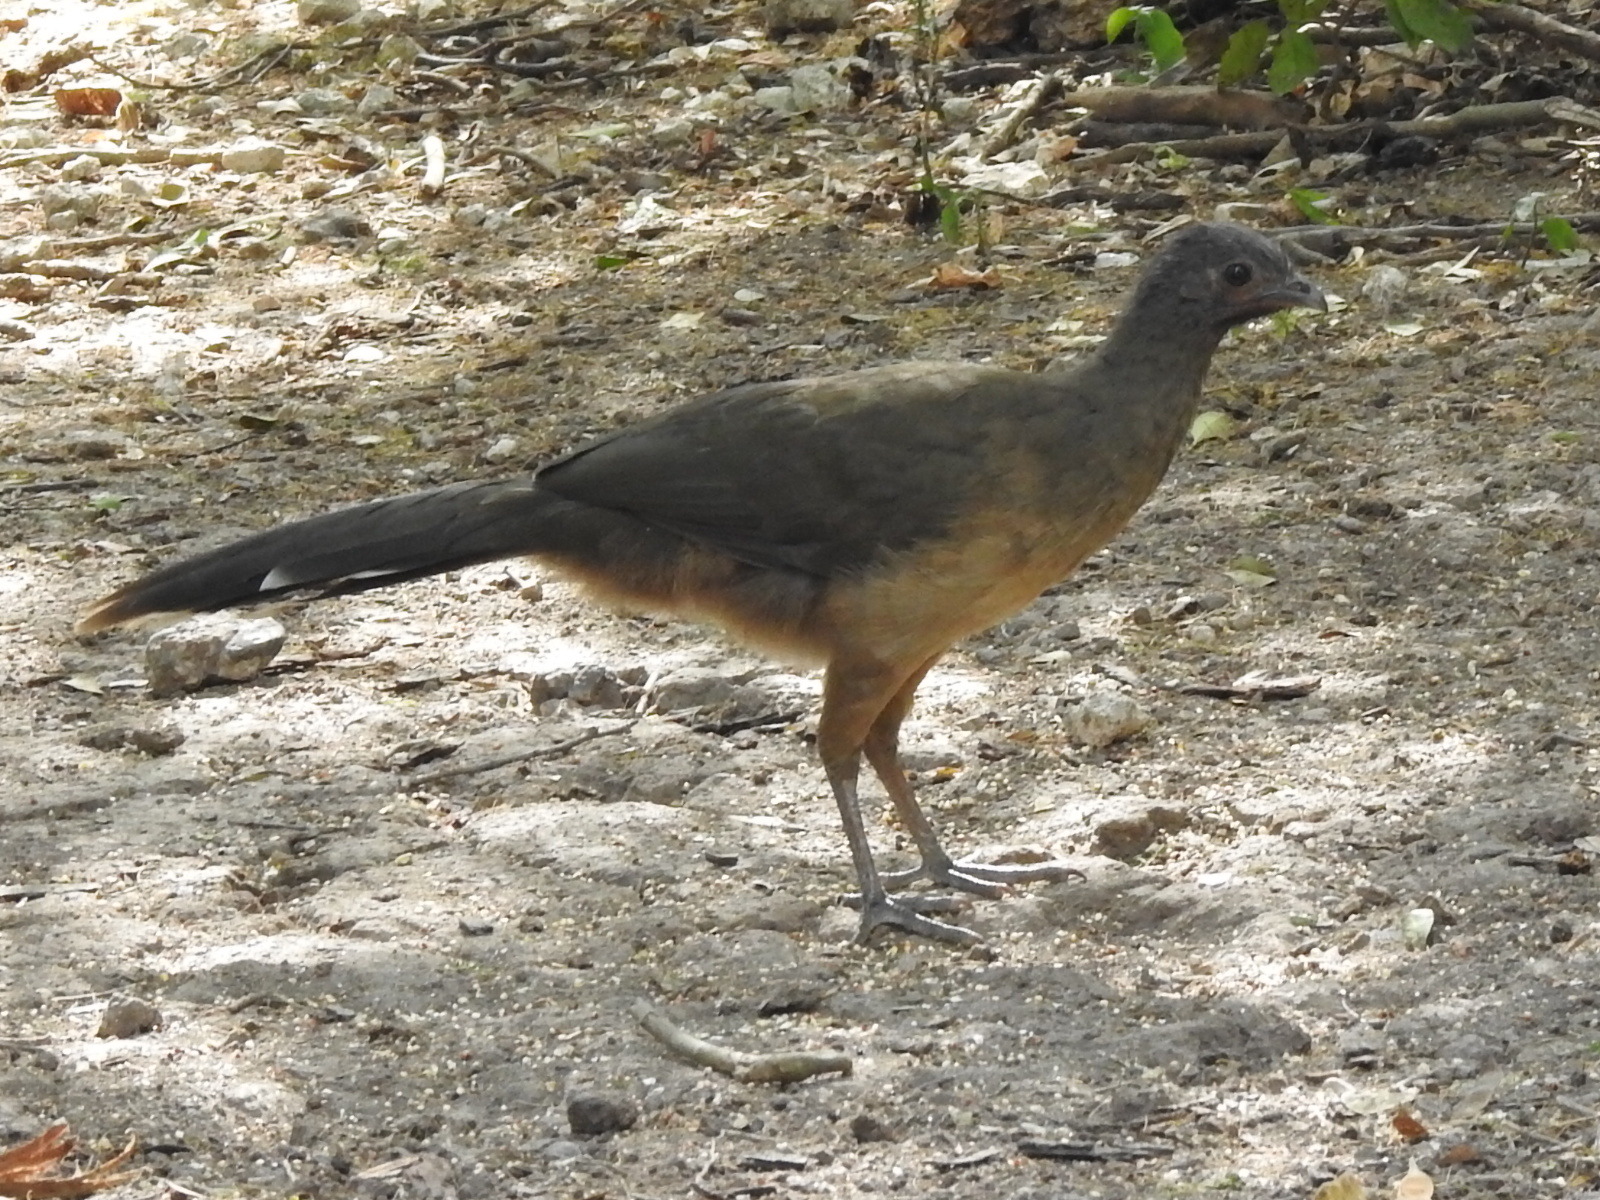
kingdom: Animalia
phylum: Chordata
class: Aves
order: Galliformes
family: Cracidae
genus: Ortalis
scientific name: Ortalis vetula
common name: Plain chachalaca
